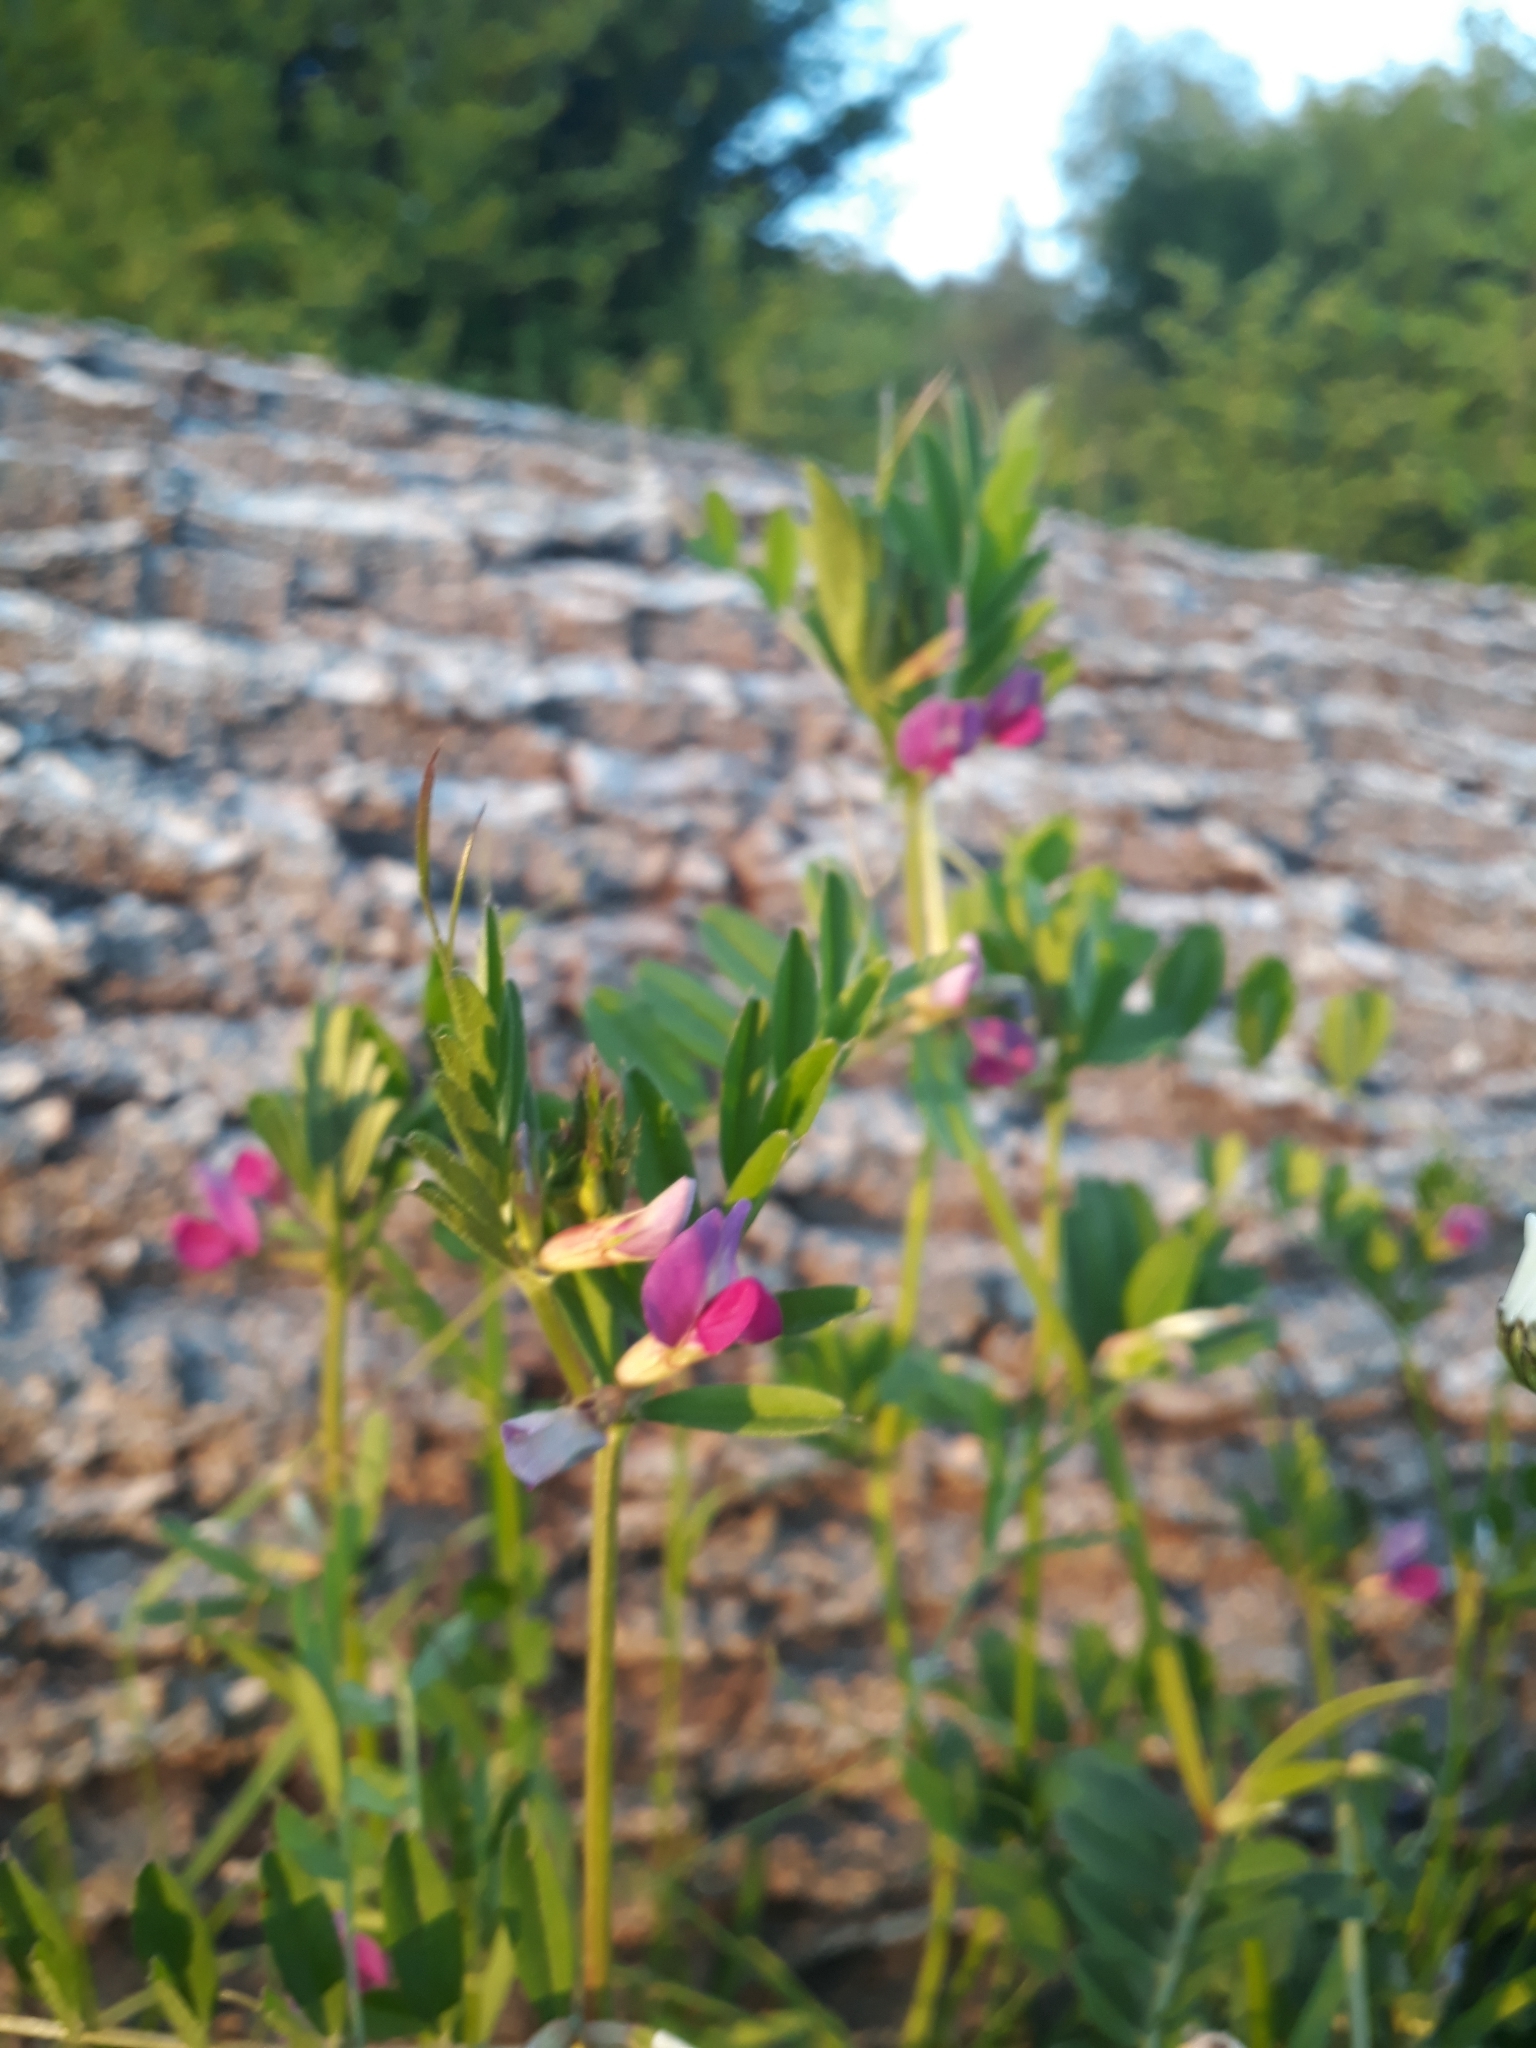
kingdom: Plantae
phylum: Tracheophyta
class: Magnoliopsida
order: Fabales
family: Fabaceae
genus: Vicia
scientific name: Vicia sativa
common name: Garden vetch
